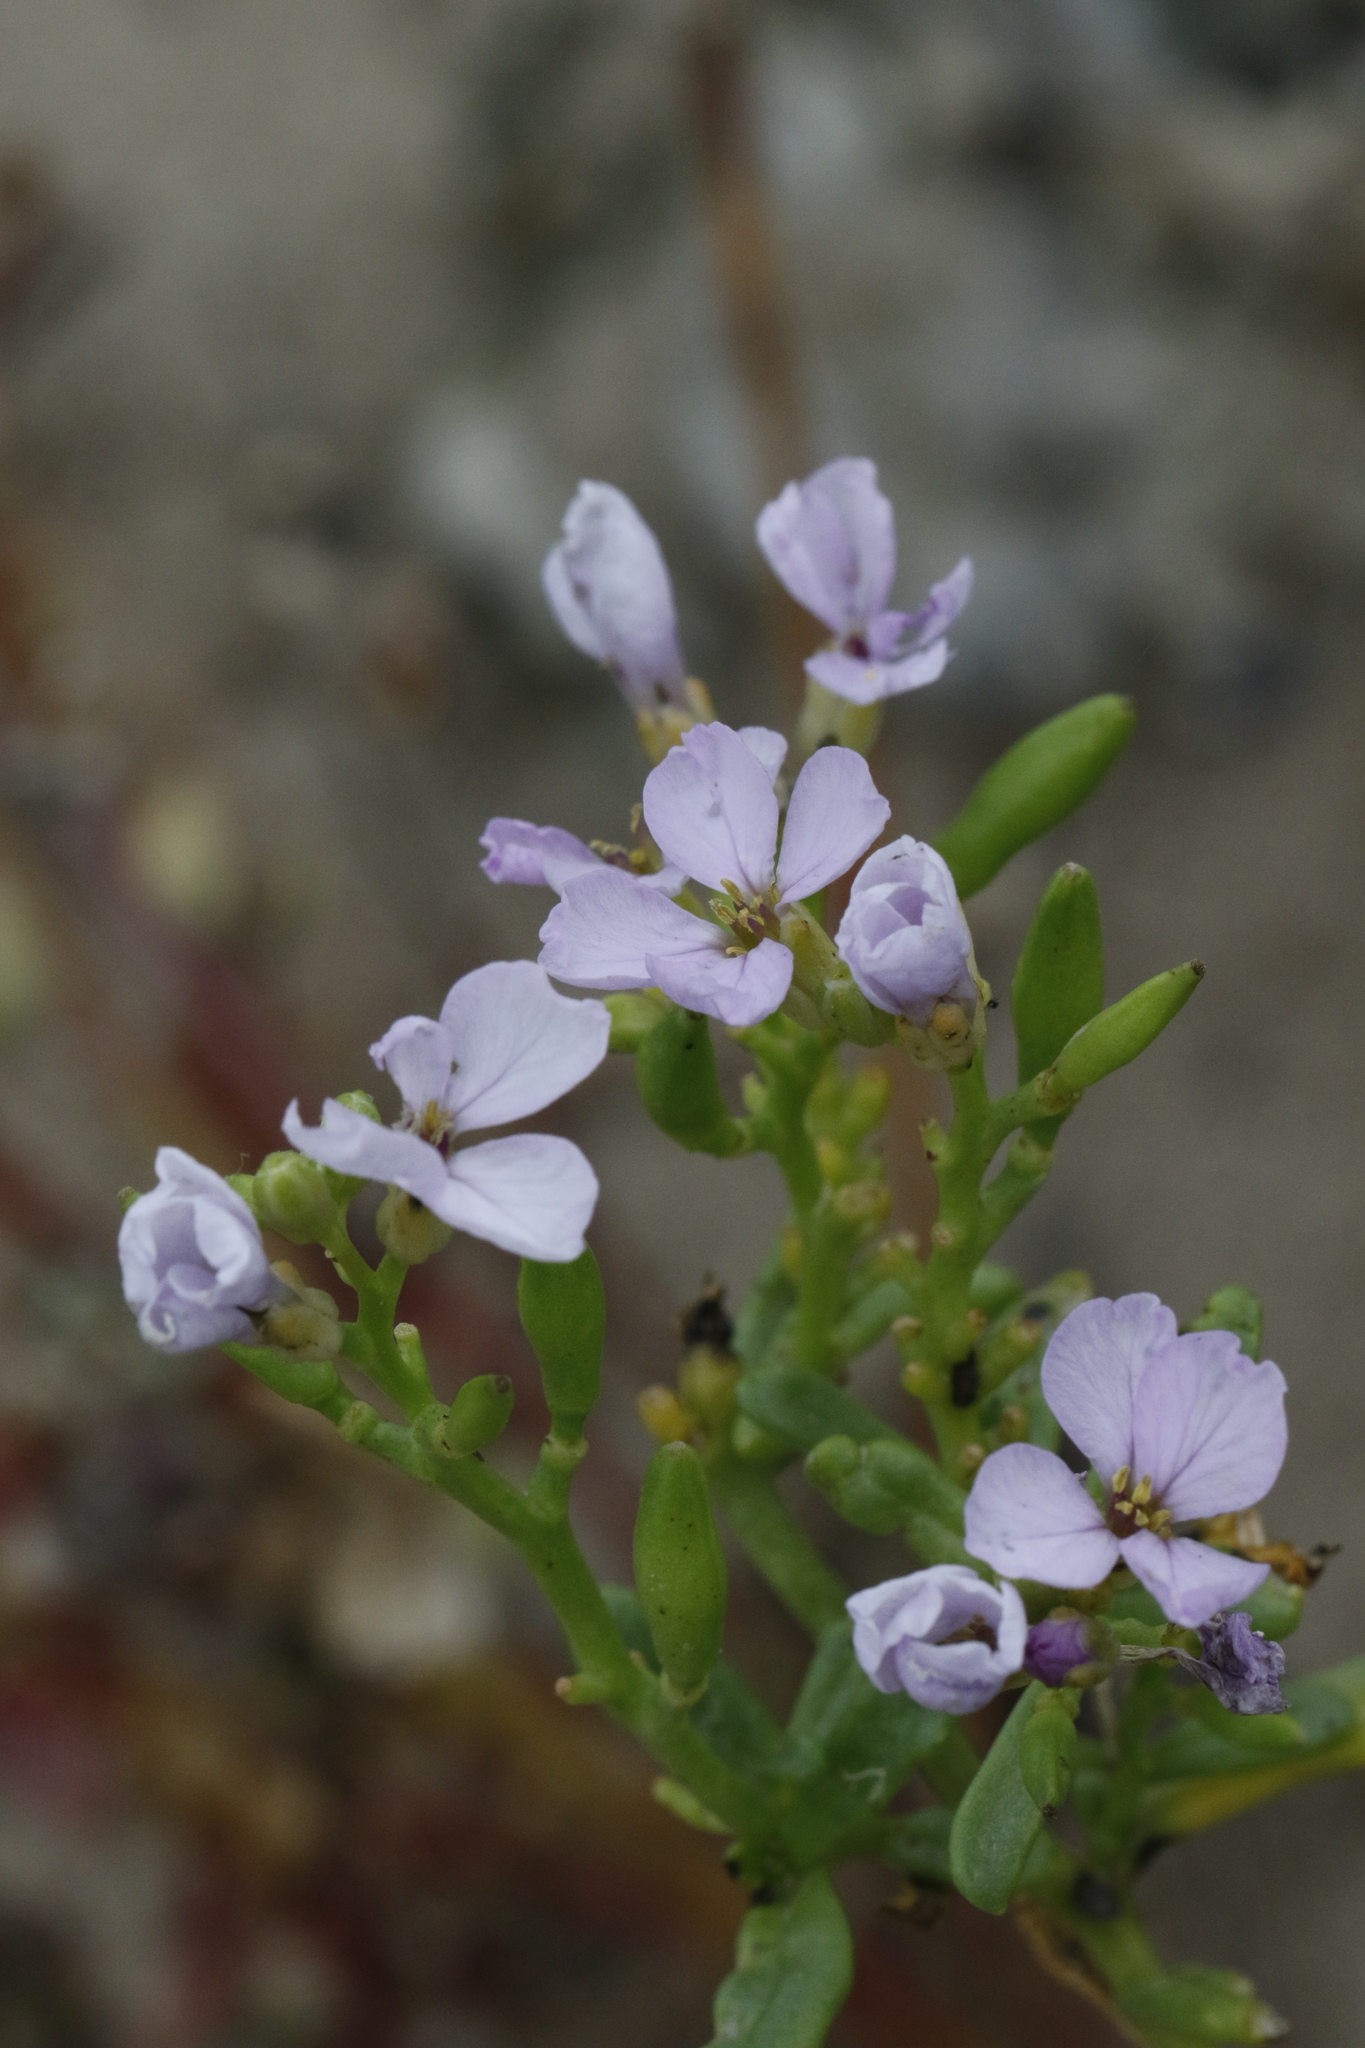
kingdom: Plantae
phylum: Tracheophyta
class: Magnoliopsida
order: Brassicales
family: Brassicaceae
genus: Cakile
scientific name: Cakile maritima
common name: Sea rocket
